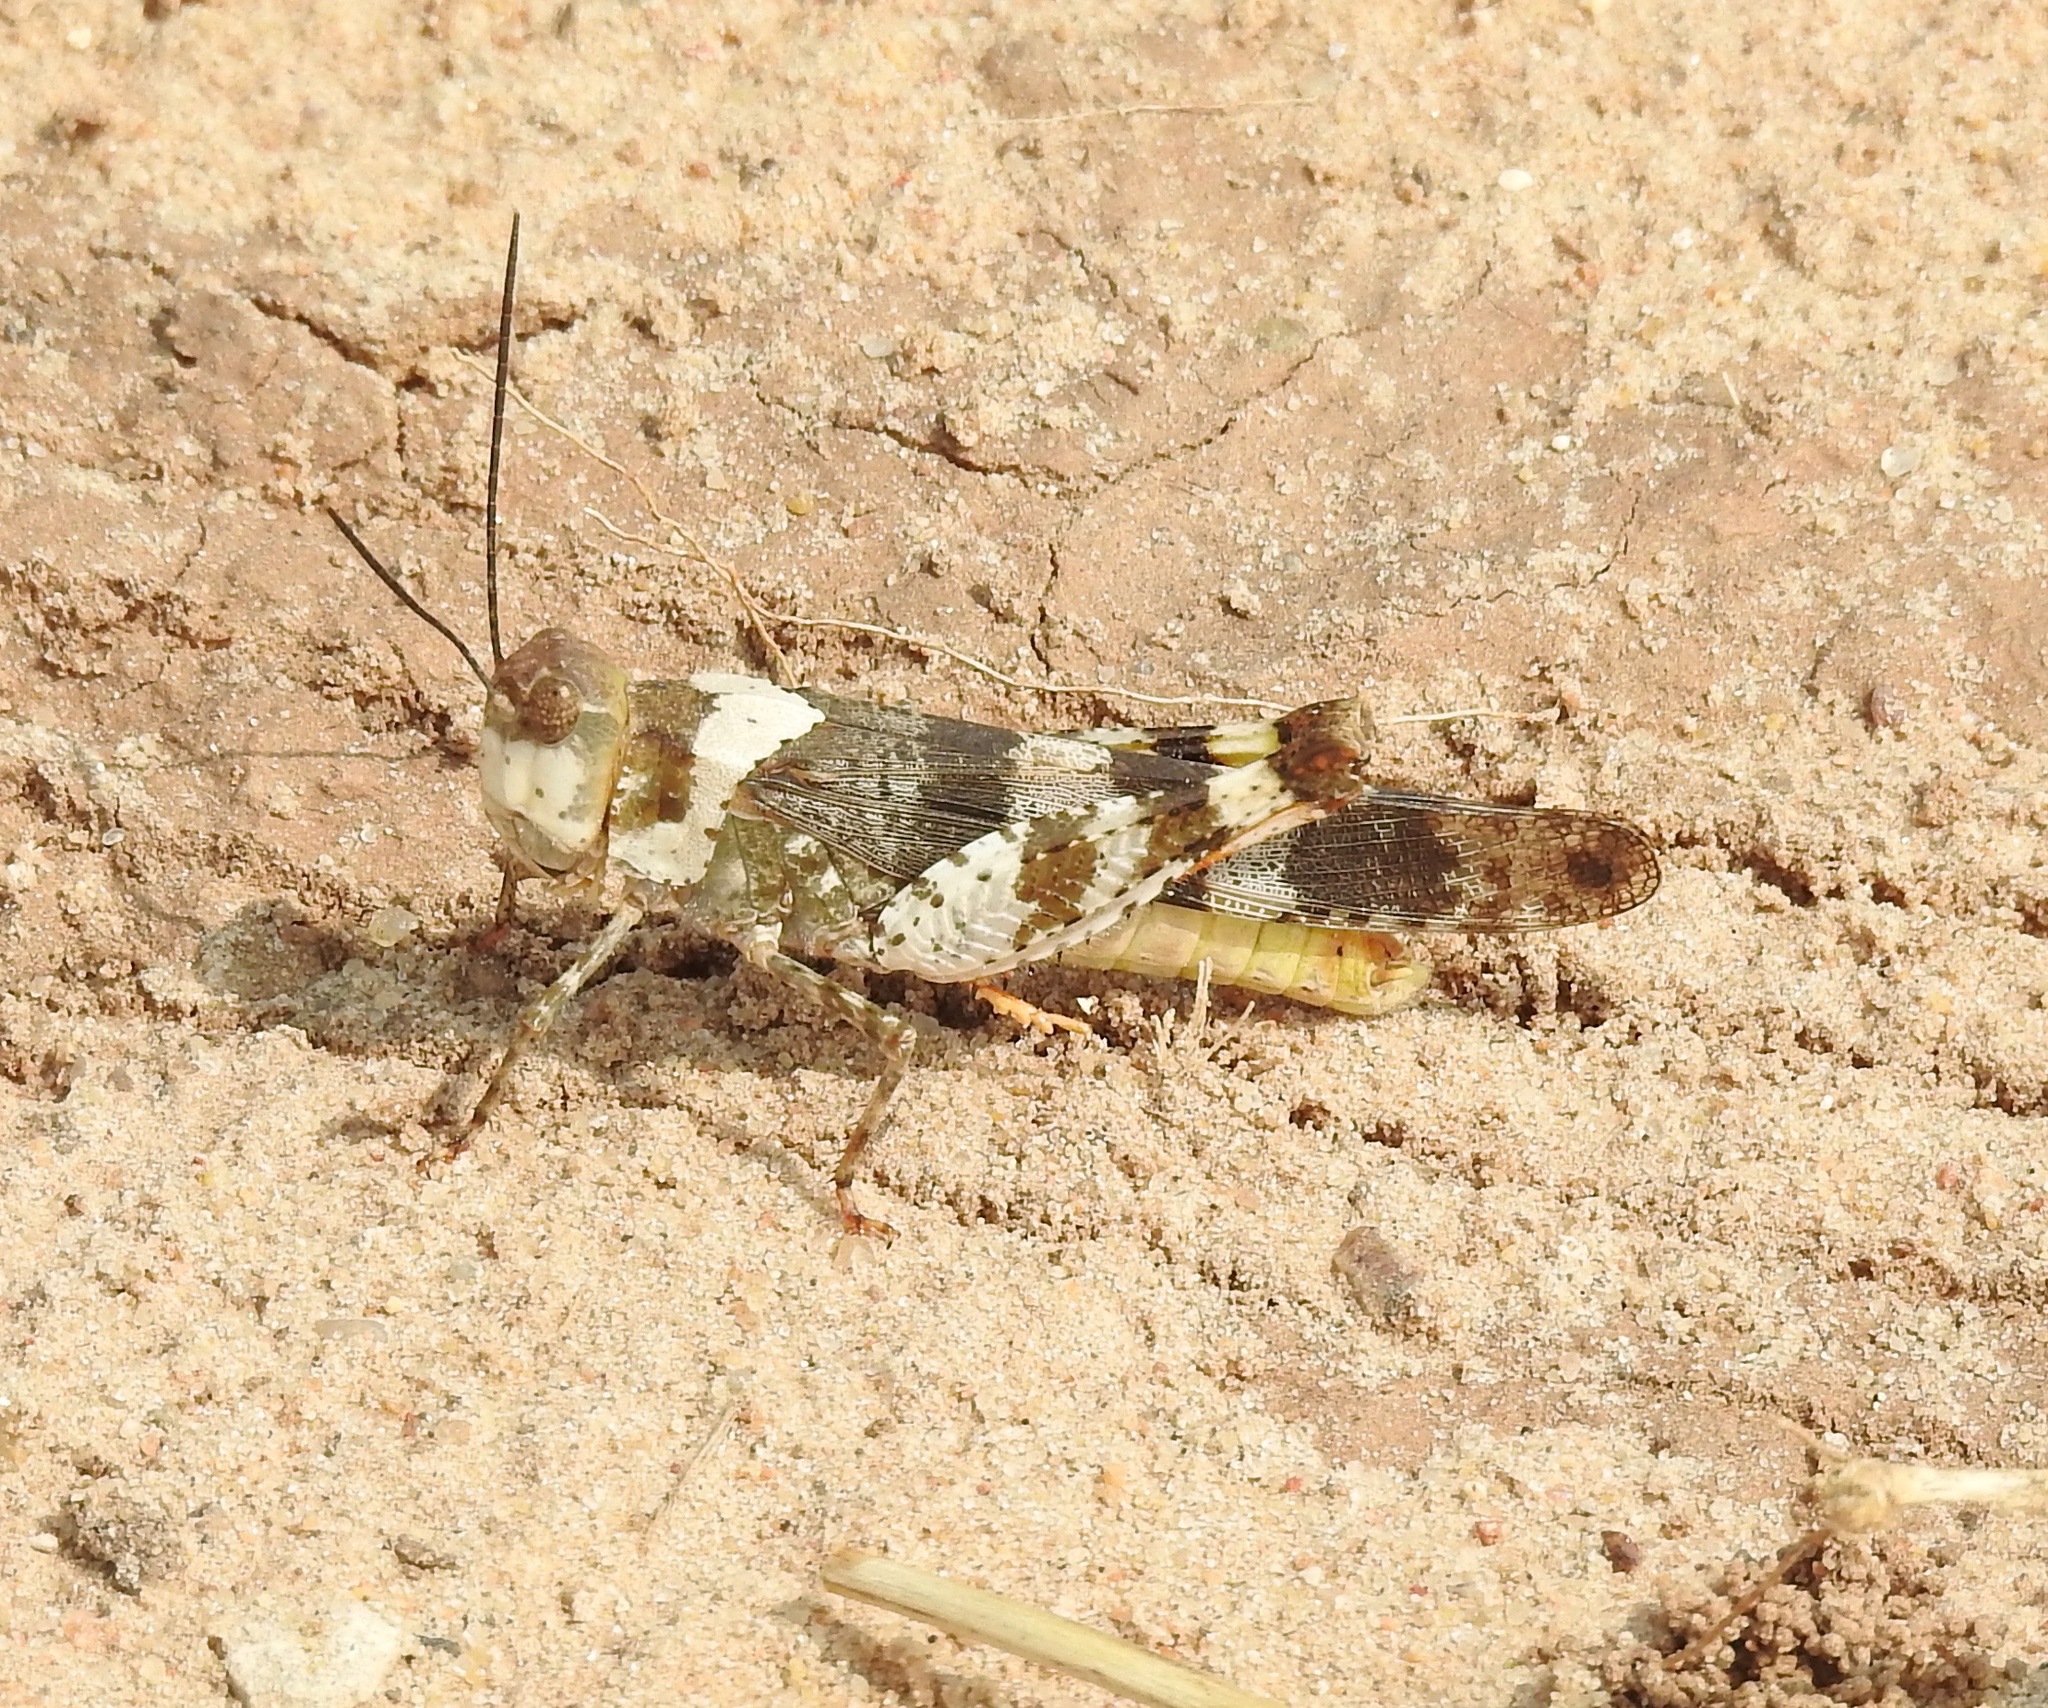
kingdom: Animalia
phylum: Arthropoda
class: Insecta
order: Orthoptera
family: Acrididae
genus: Spharagemon
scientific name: Spharagemon equale
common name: Orange-legged grasshopper
